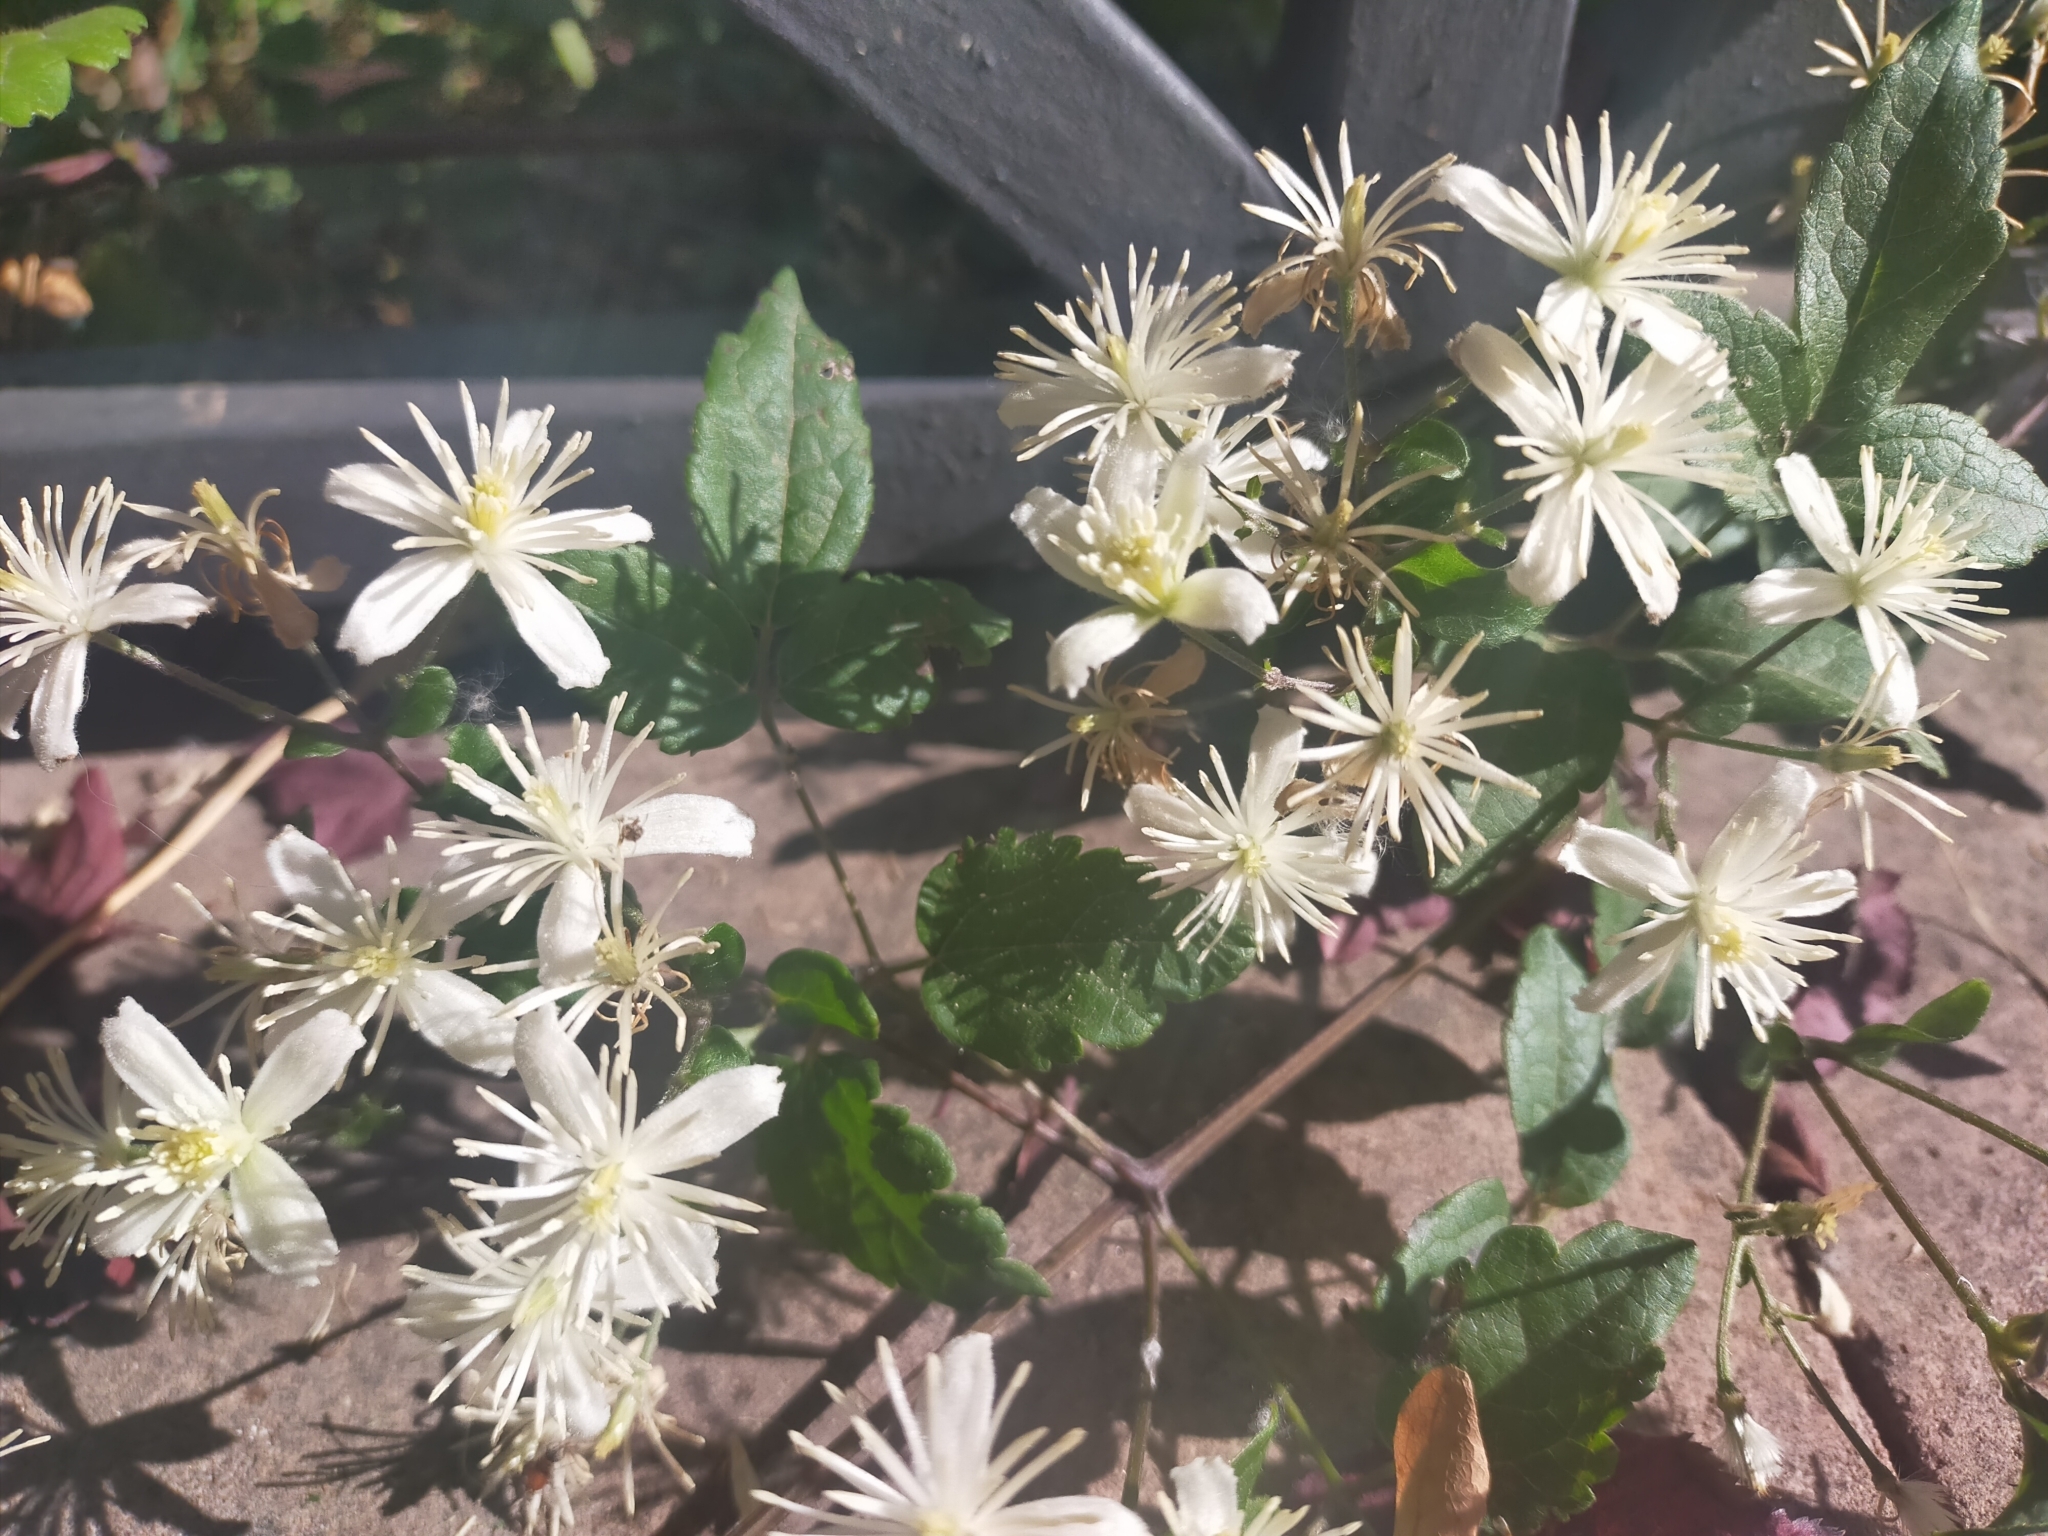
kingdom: Plantae
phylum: Tracheophyta
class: Magnoliopsida
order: Ranunculales
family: Ranunculaceae
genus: Clematis
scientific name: Clematis vitalba
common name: Evergreen clematis
